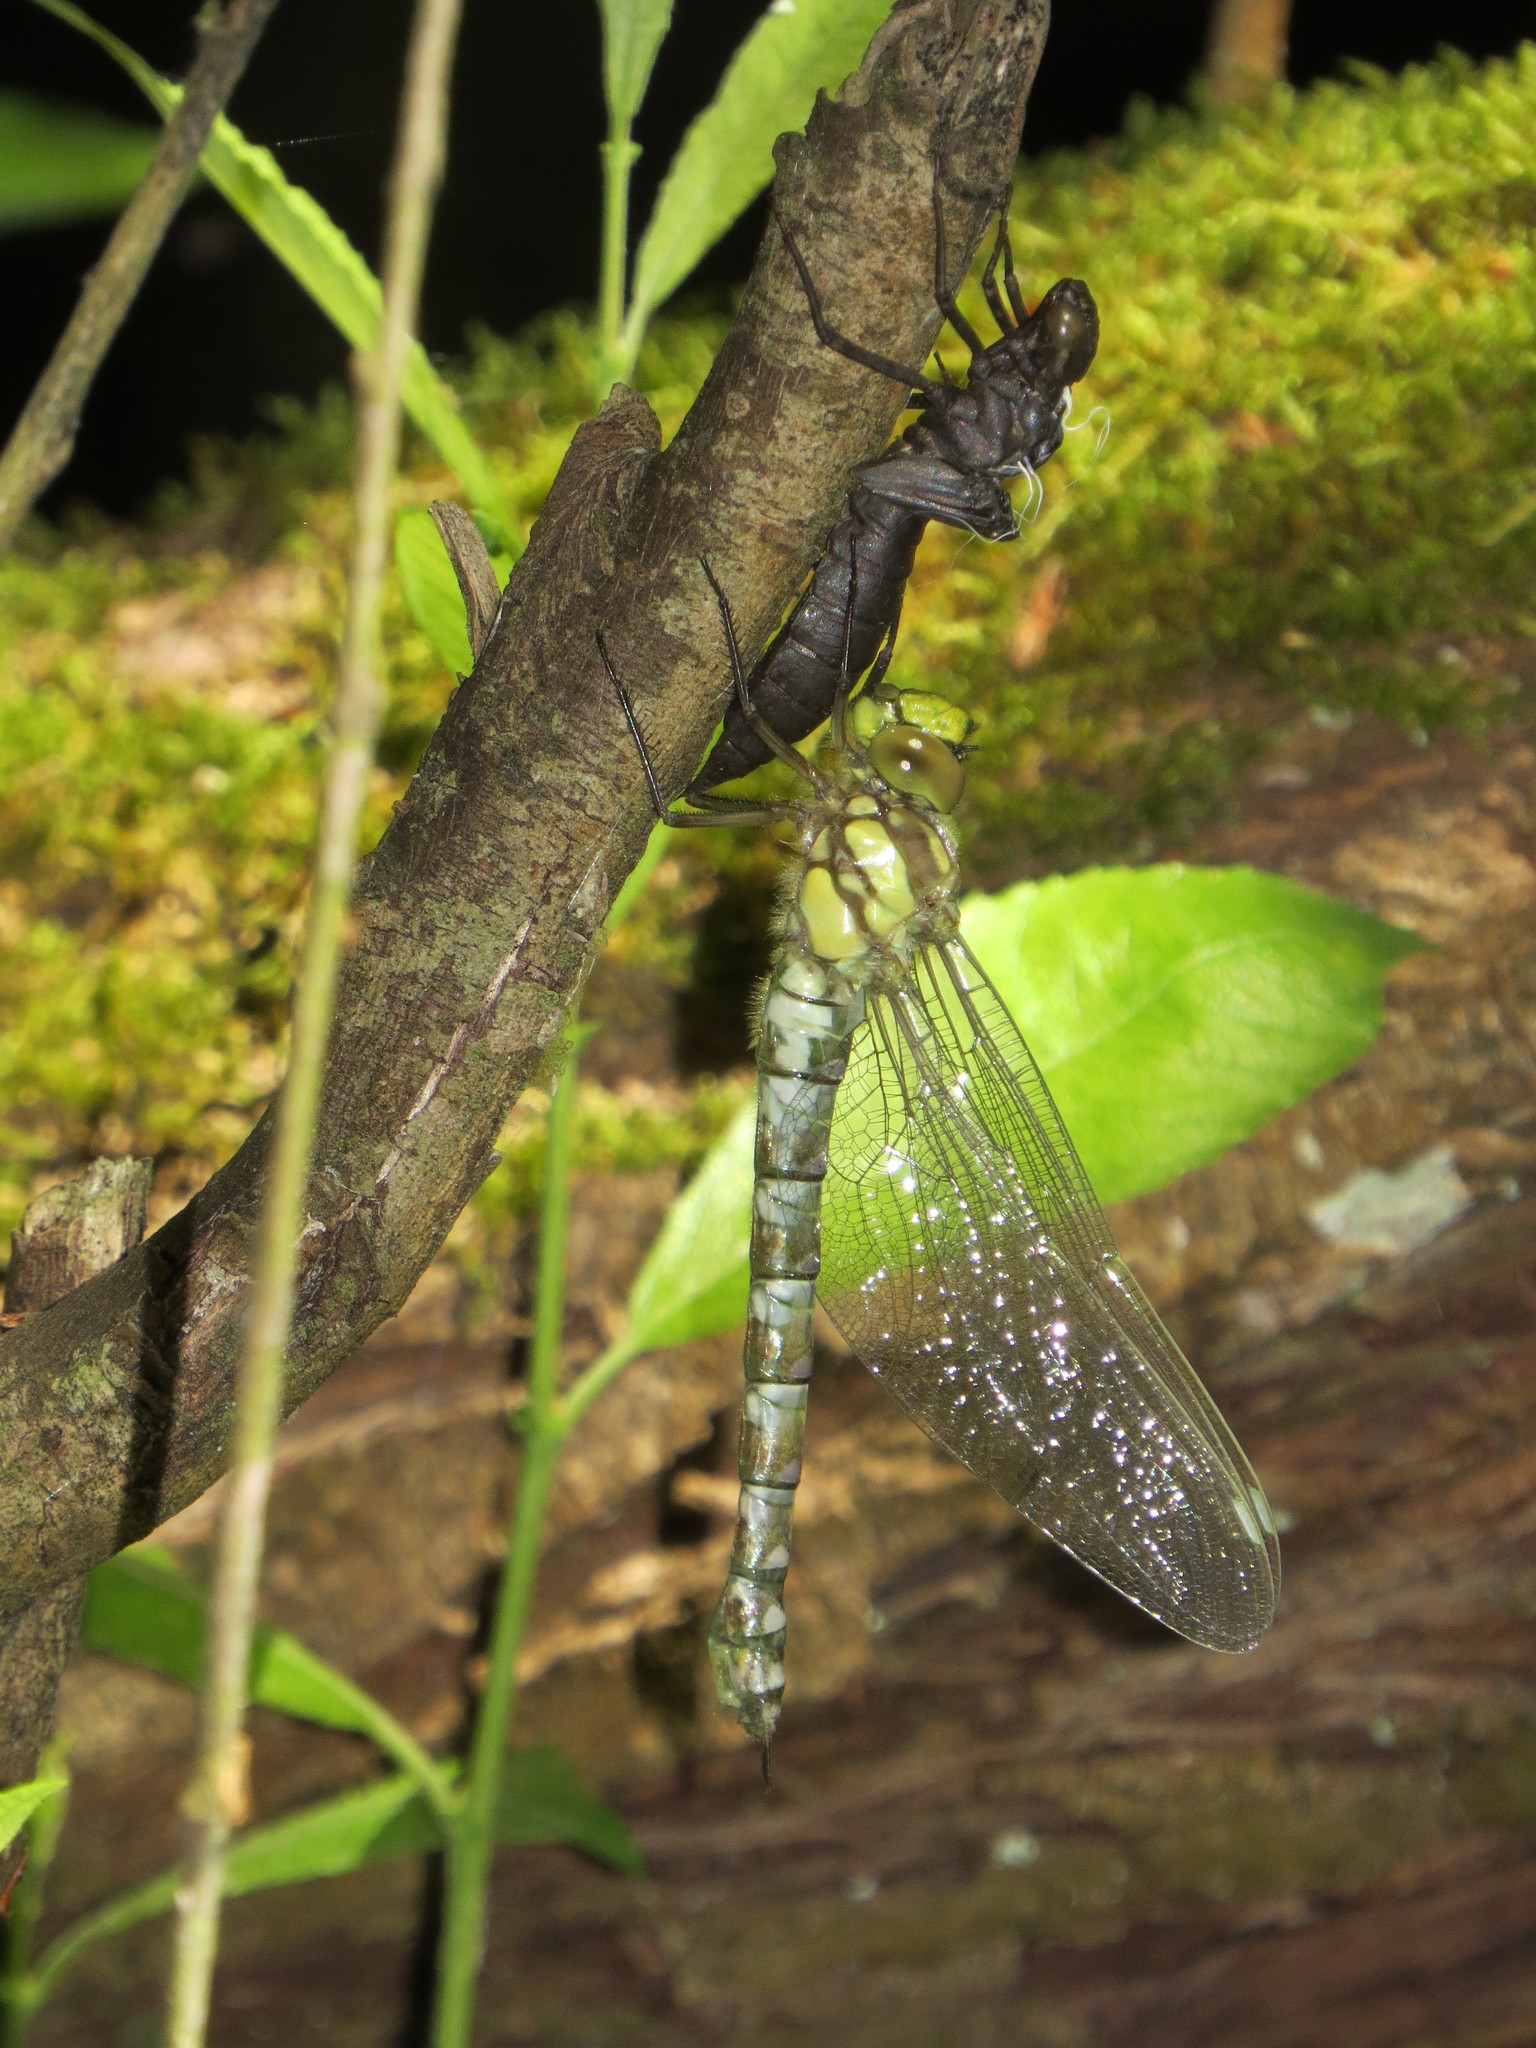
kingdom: Animalia
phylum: Arthropoda
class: Insecta
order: Odonata
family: Aeshnidae
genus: Aeshna
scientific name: Aeshna cyanea
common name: Southern hawker
